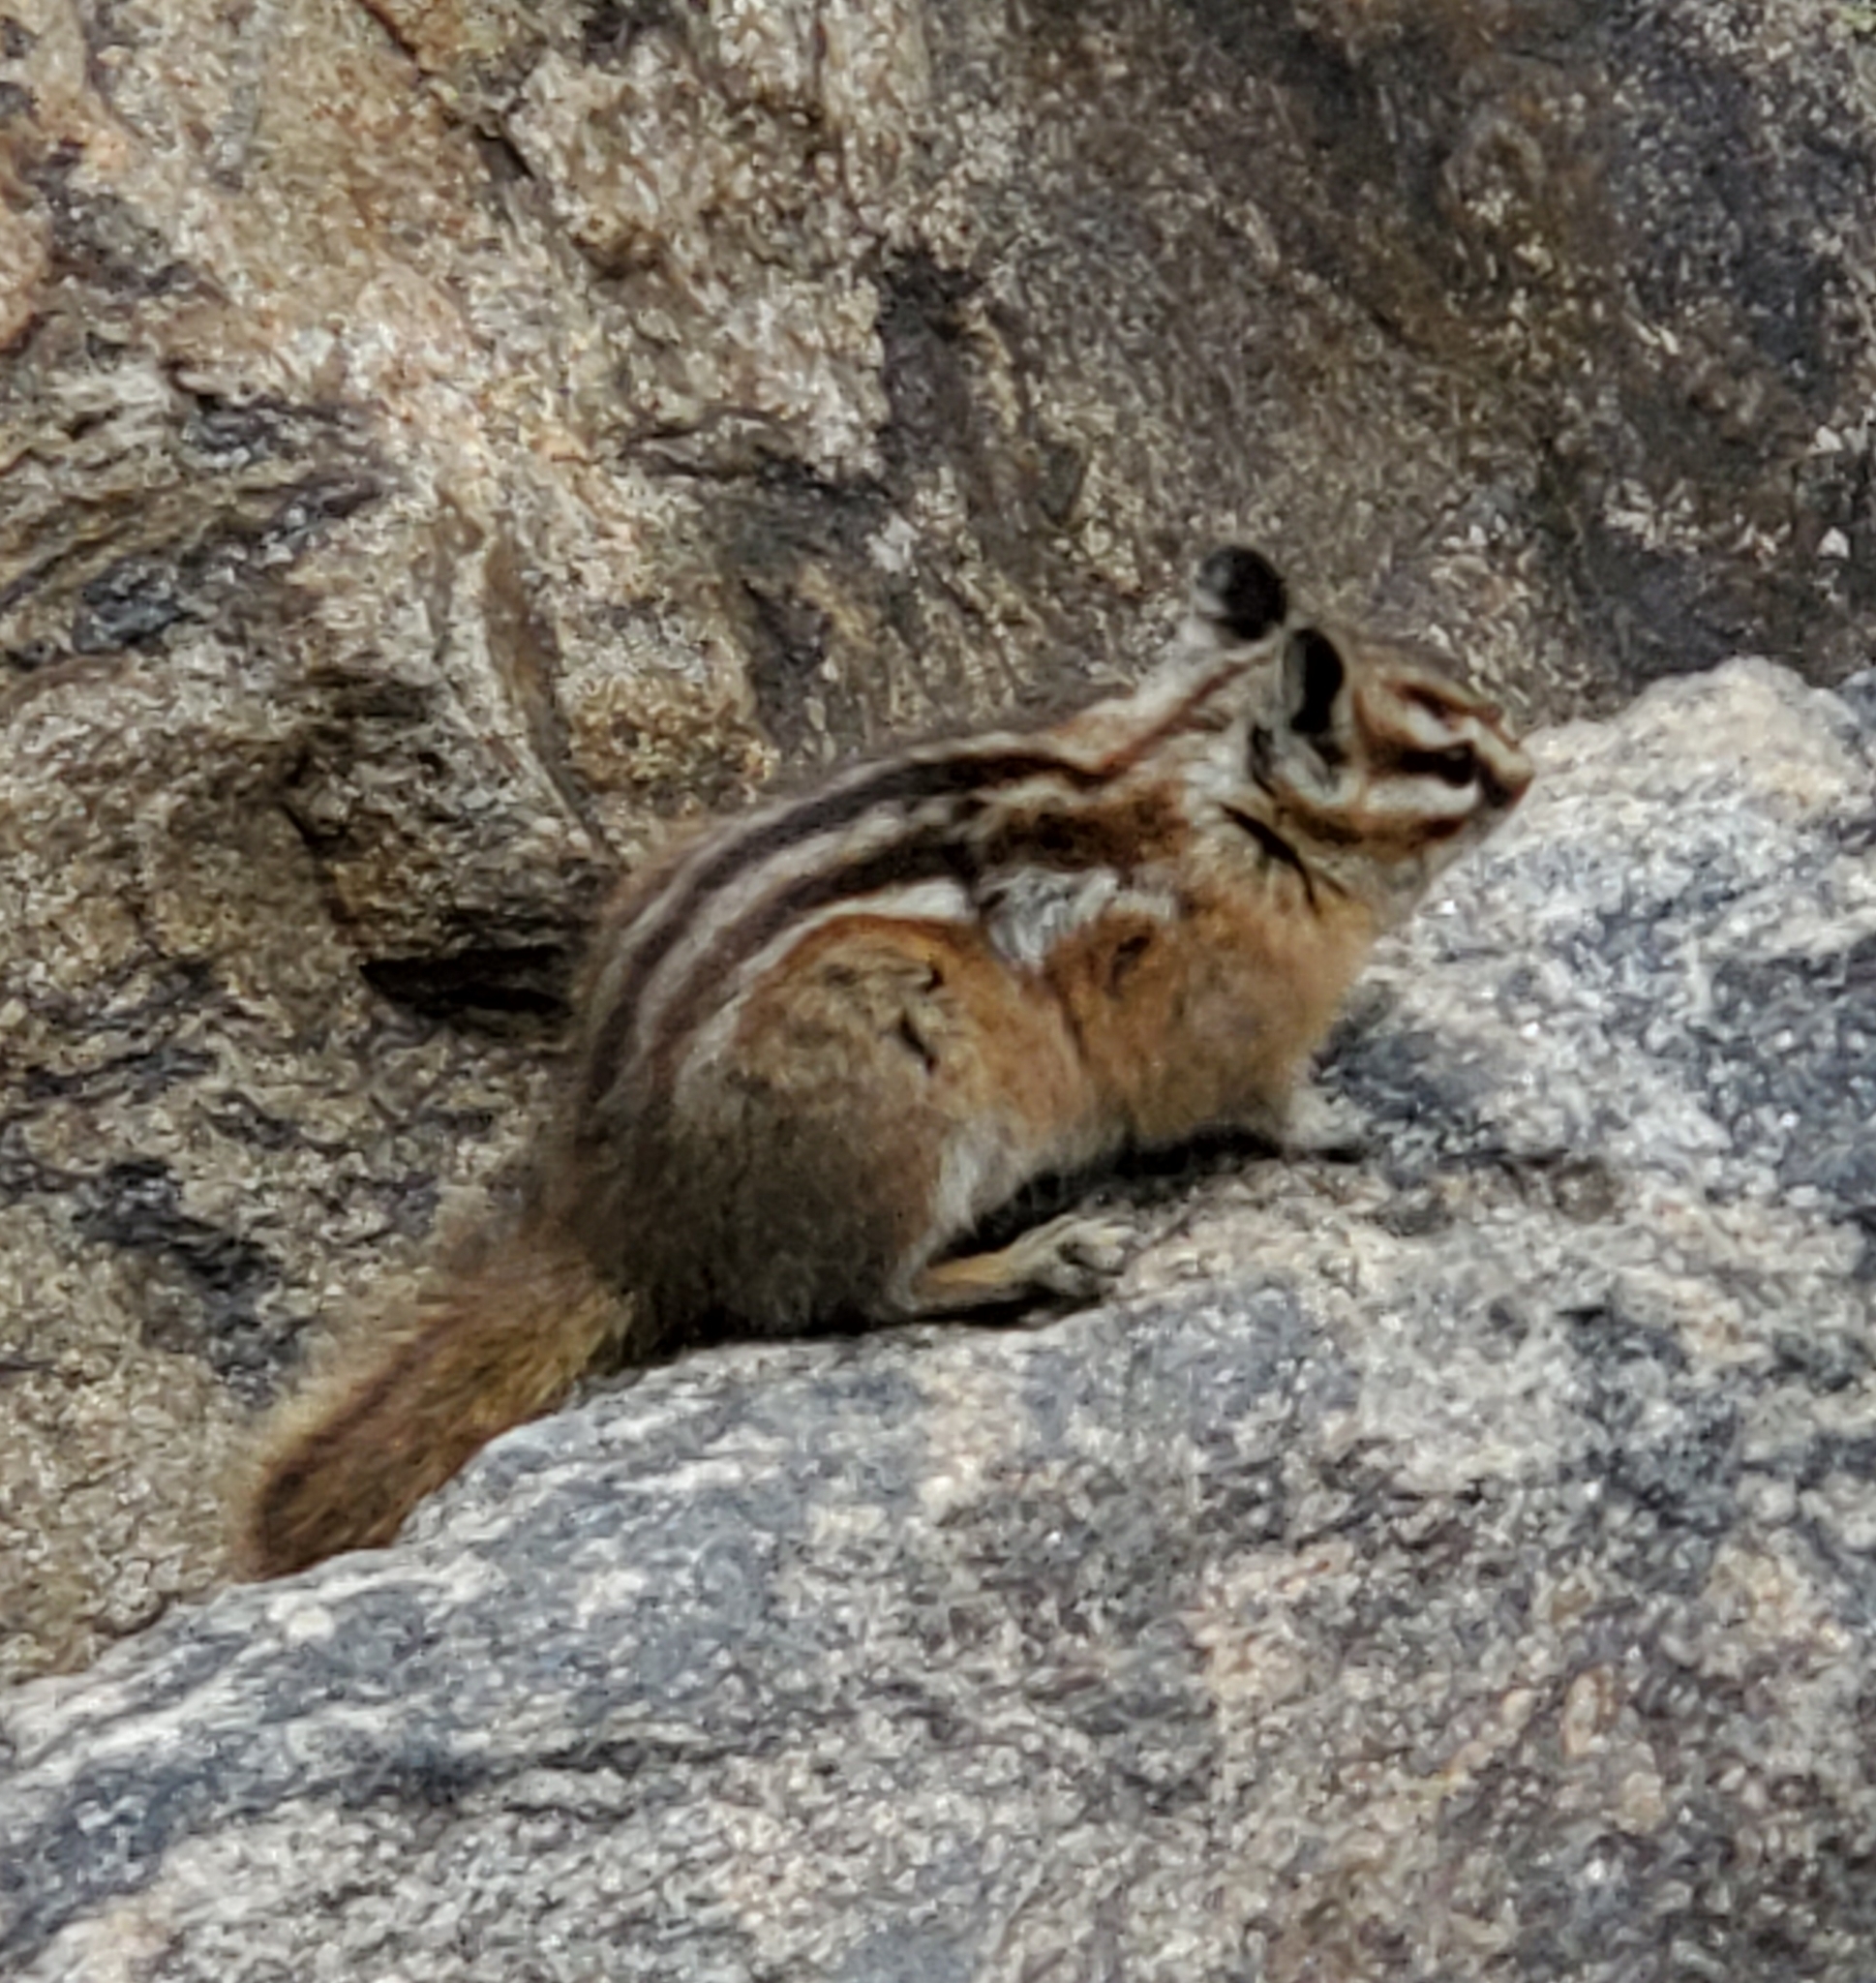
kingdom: Animalia
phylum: Chordata
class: Mammalia
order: Rodentia
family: Sciuridae
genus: Tamias
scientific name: Tamias minimus
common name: Least chipmunk
